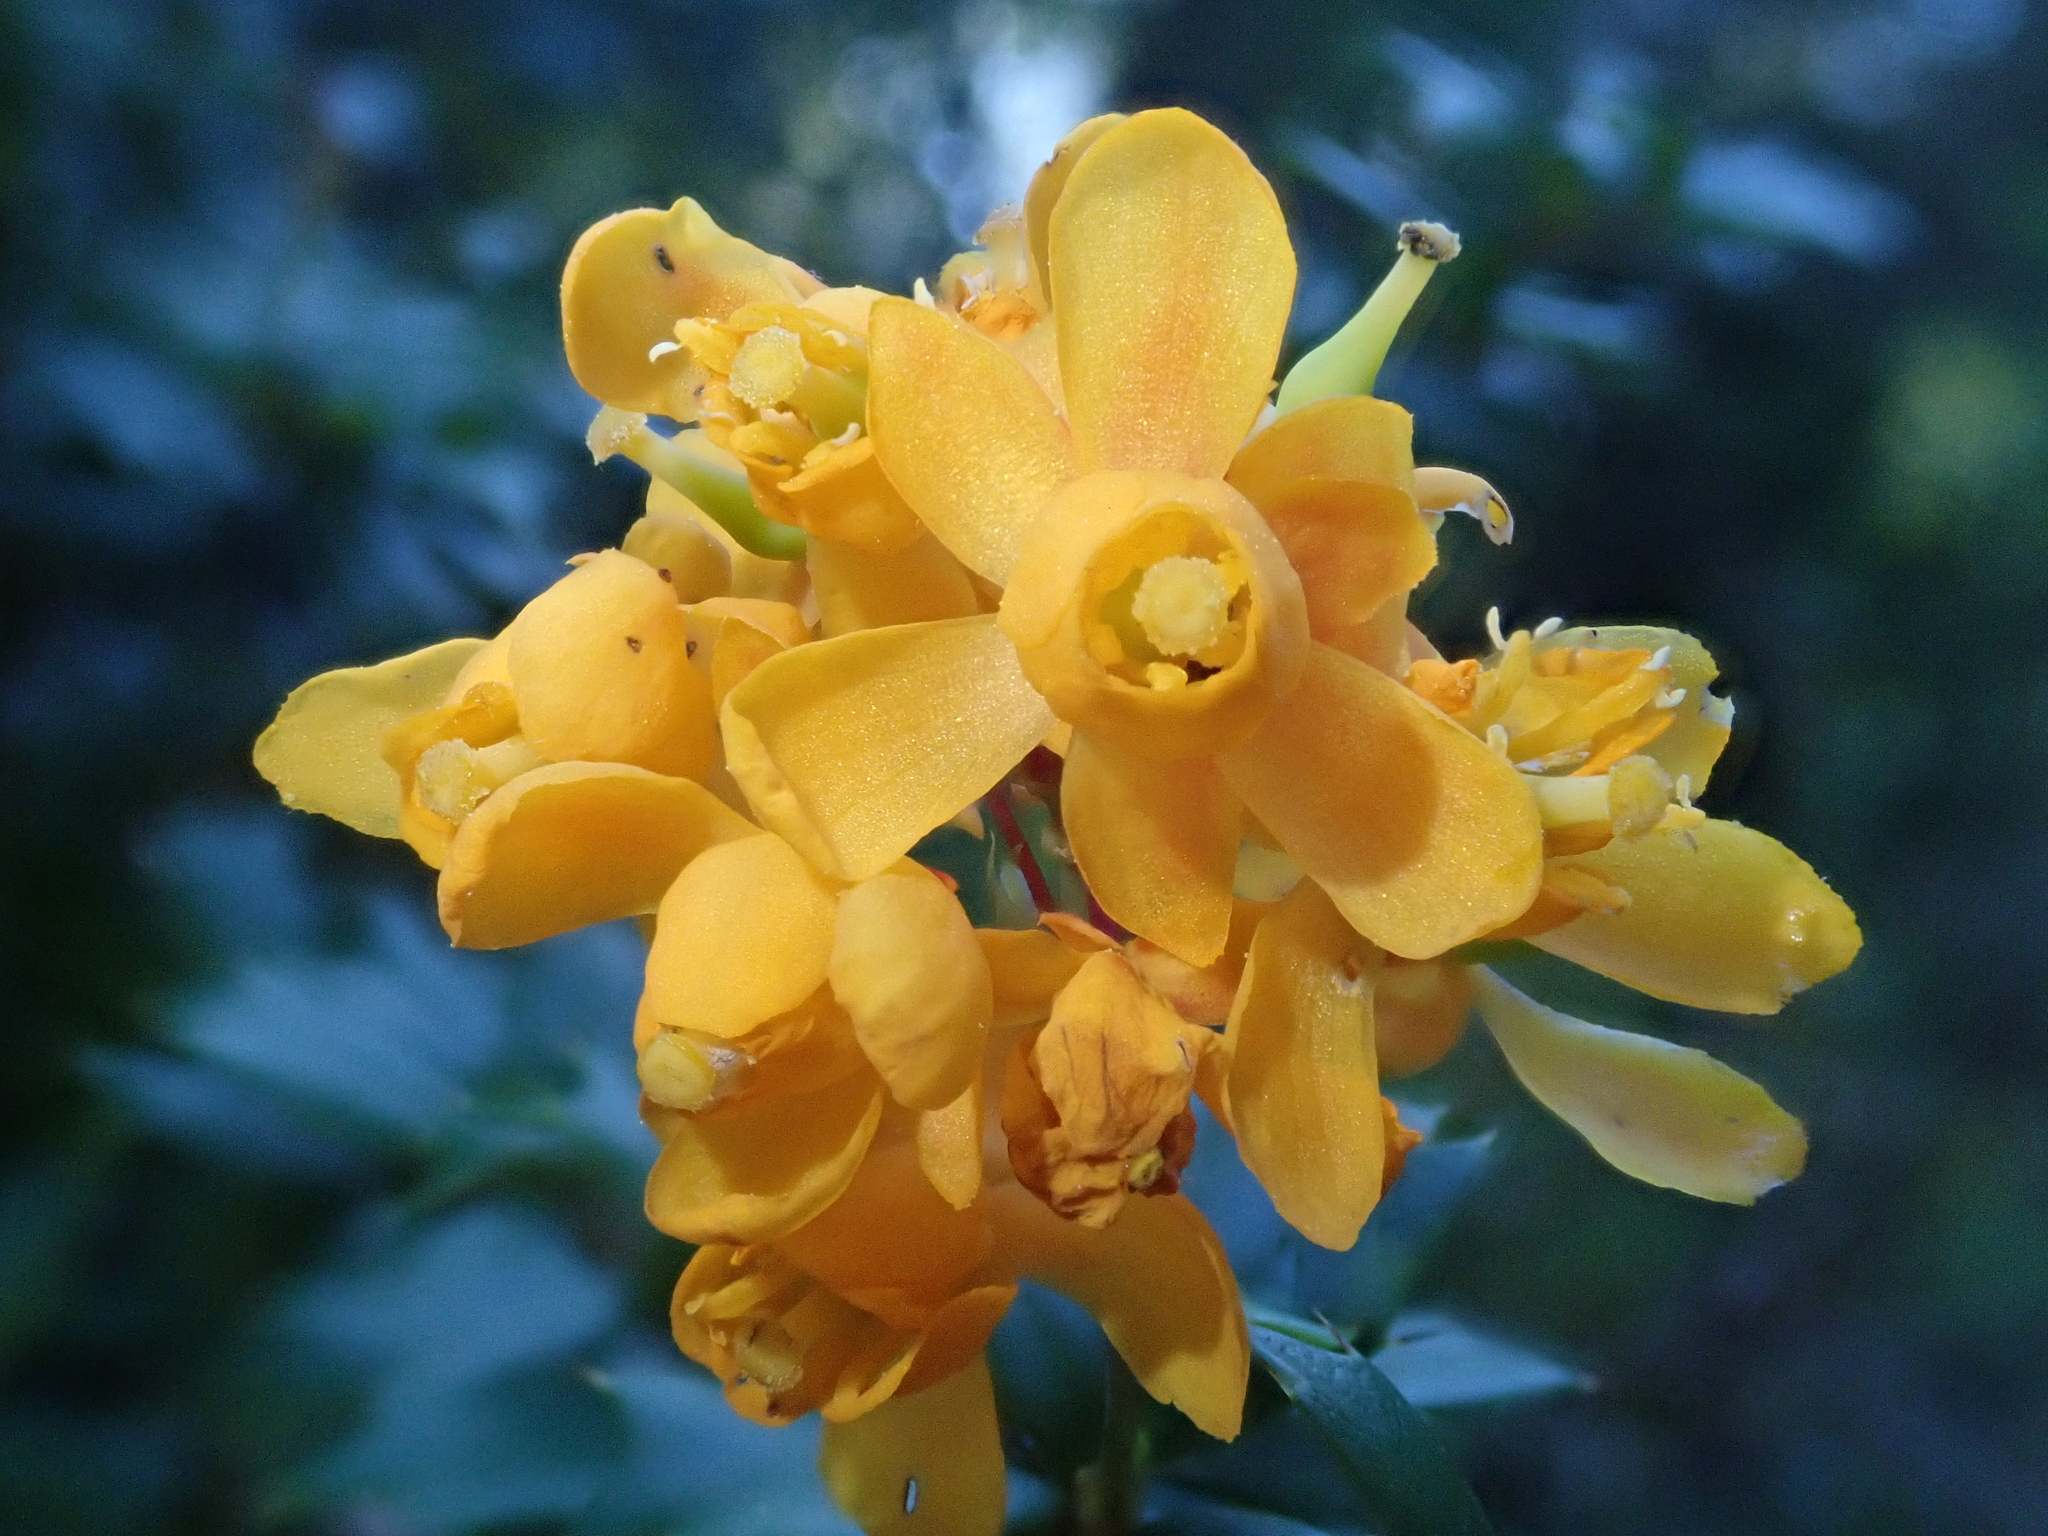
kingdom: Plantae
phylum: Tracheophyta
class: Magnoliopsida
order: Ranunculales
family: Berberidaceae
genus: Berberis
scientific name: Berberis darwinii
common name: Darwin's barberry
